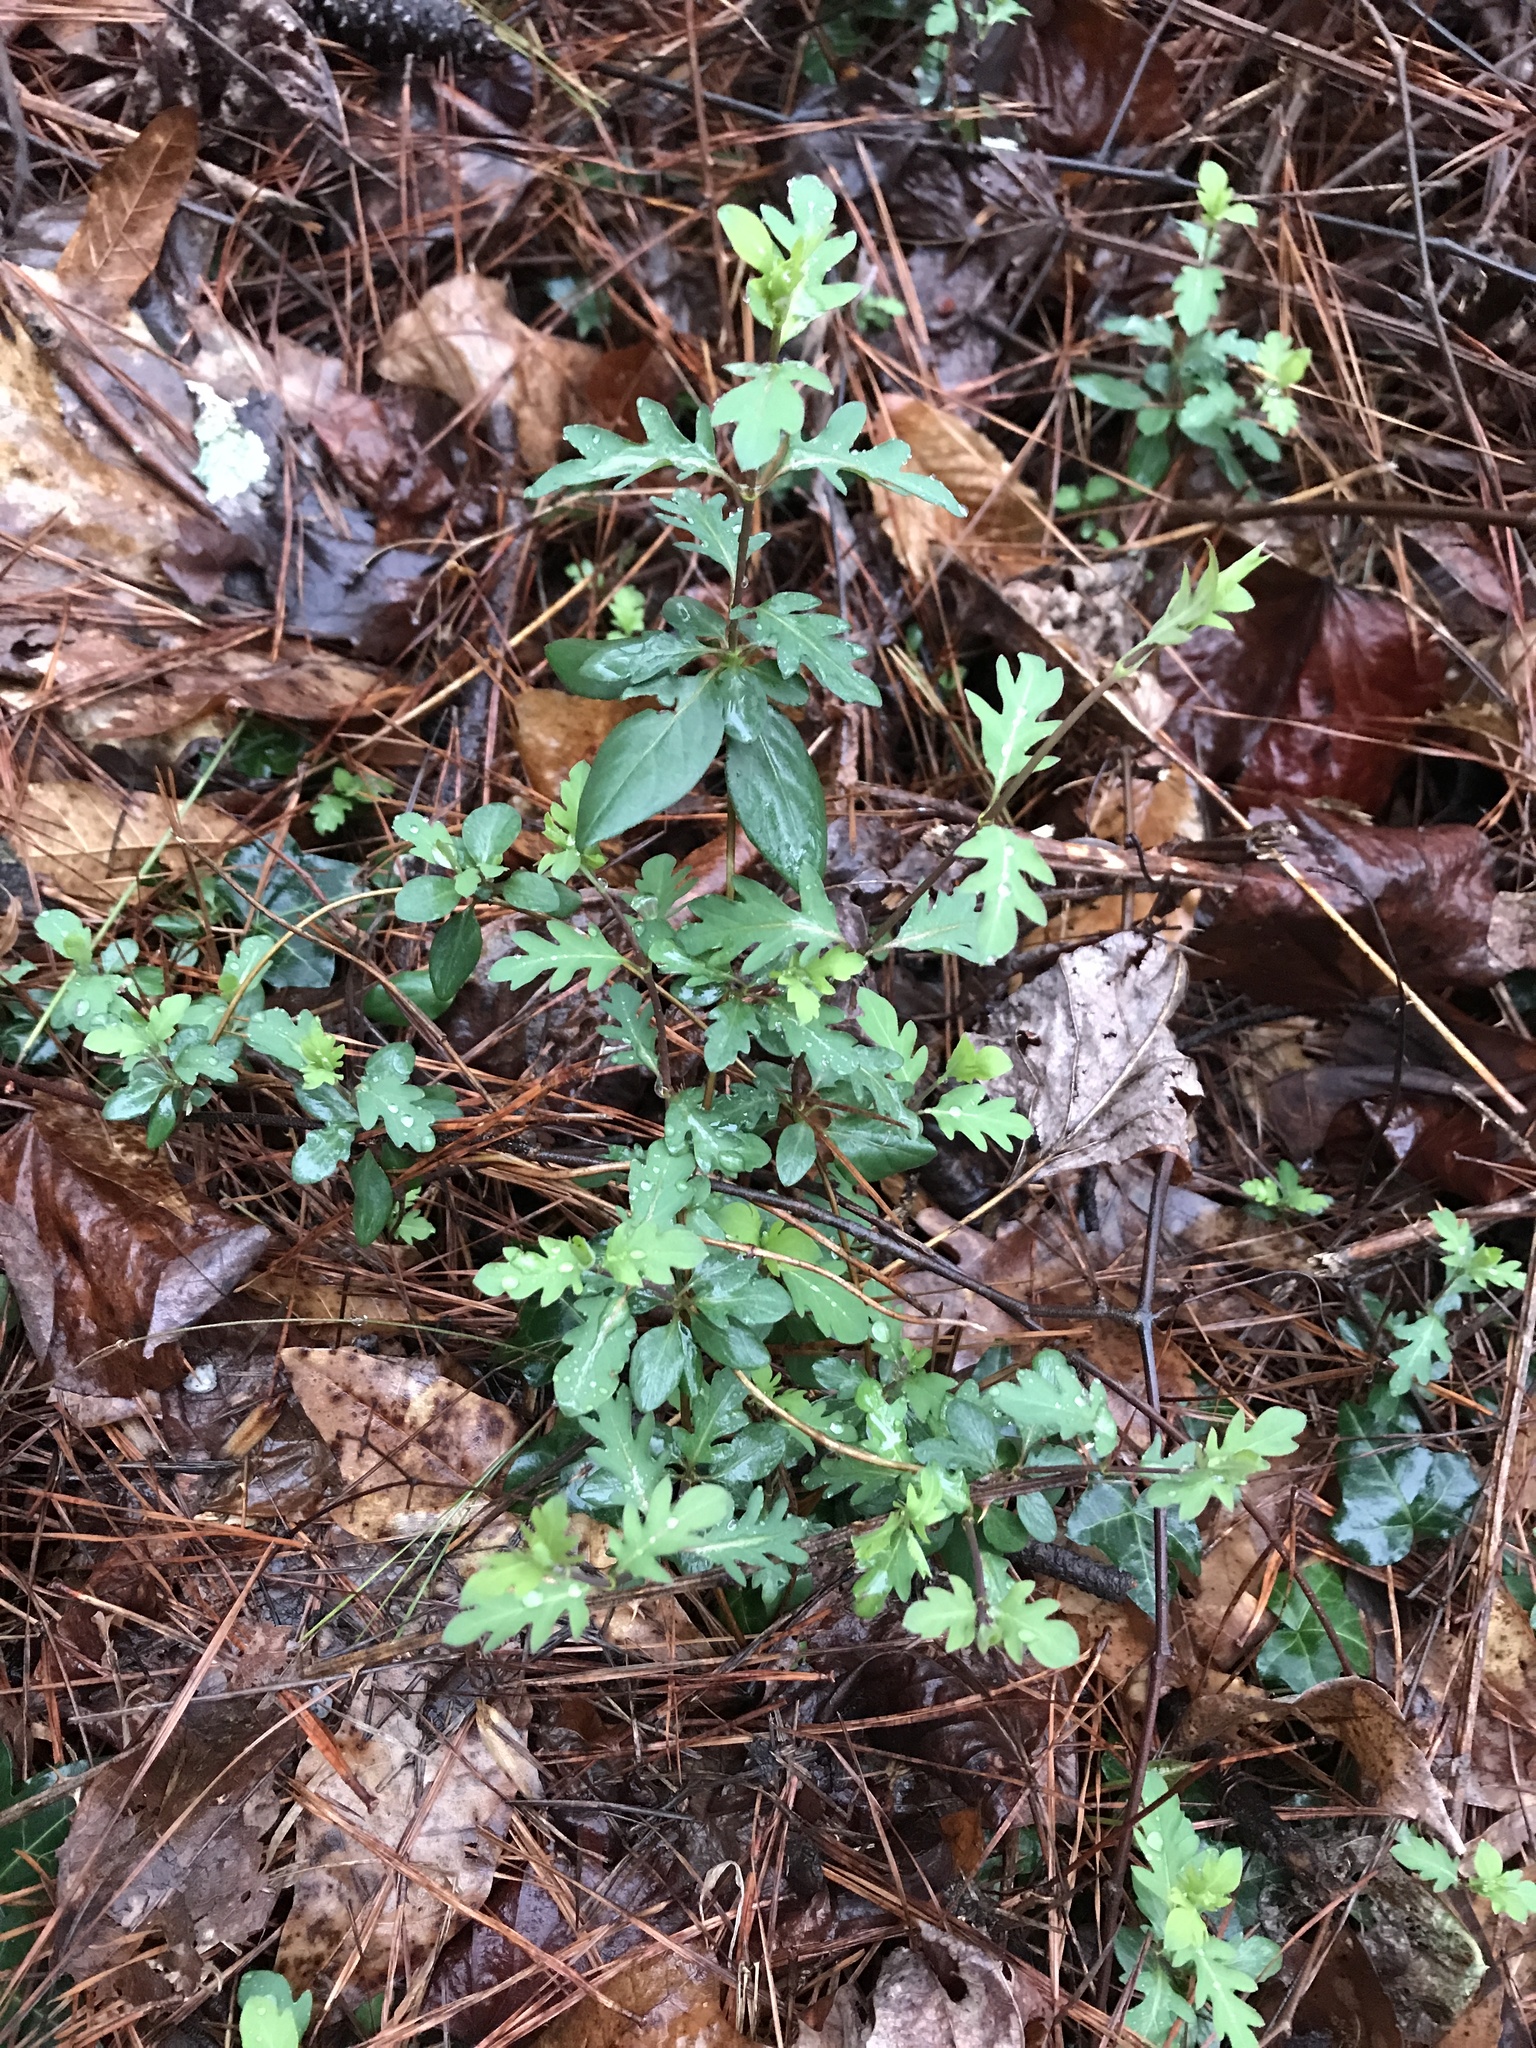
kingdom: Plantae
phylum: Tracheophyta
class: Magnoliopsida
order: Dipsacales
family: Caprifoliaceae
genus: Lonicera
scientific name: Lonicera japonica
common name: Japanese honeysuckle
